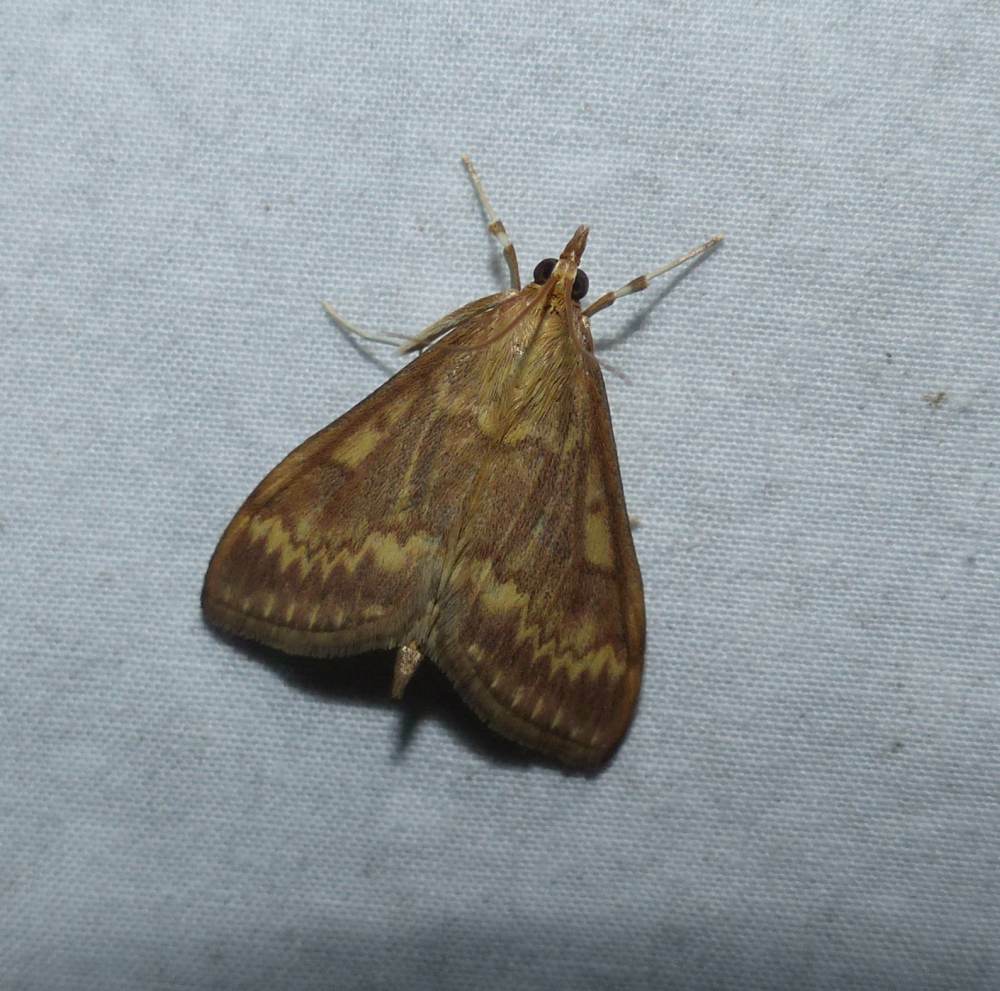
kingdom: Animalia
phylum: Arthropoda
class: Insecta
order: Lepidoptera
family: Crambidae
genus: Ostrinia
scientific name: Ostrinia nubilalis
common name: European corn borer
